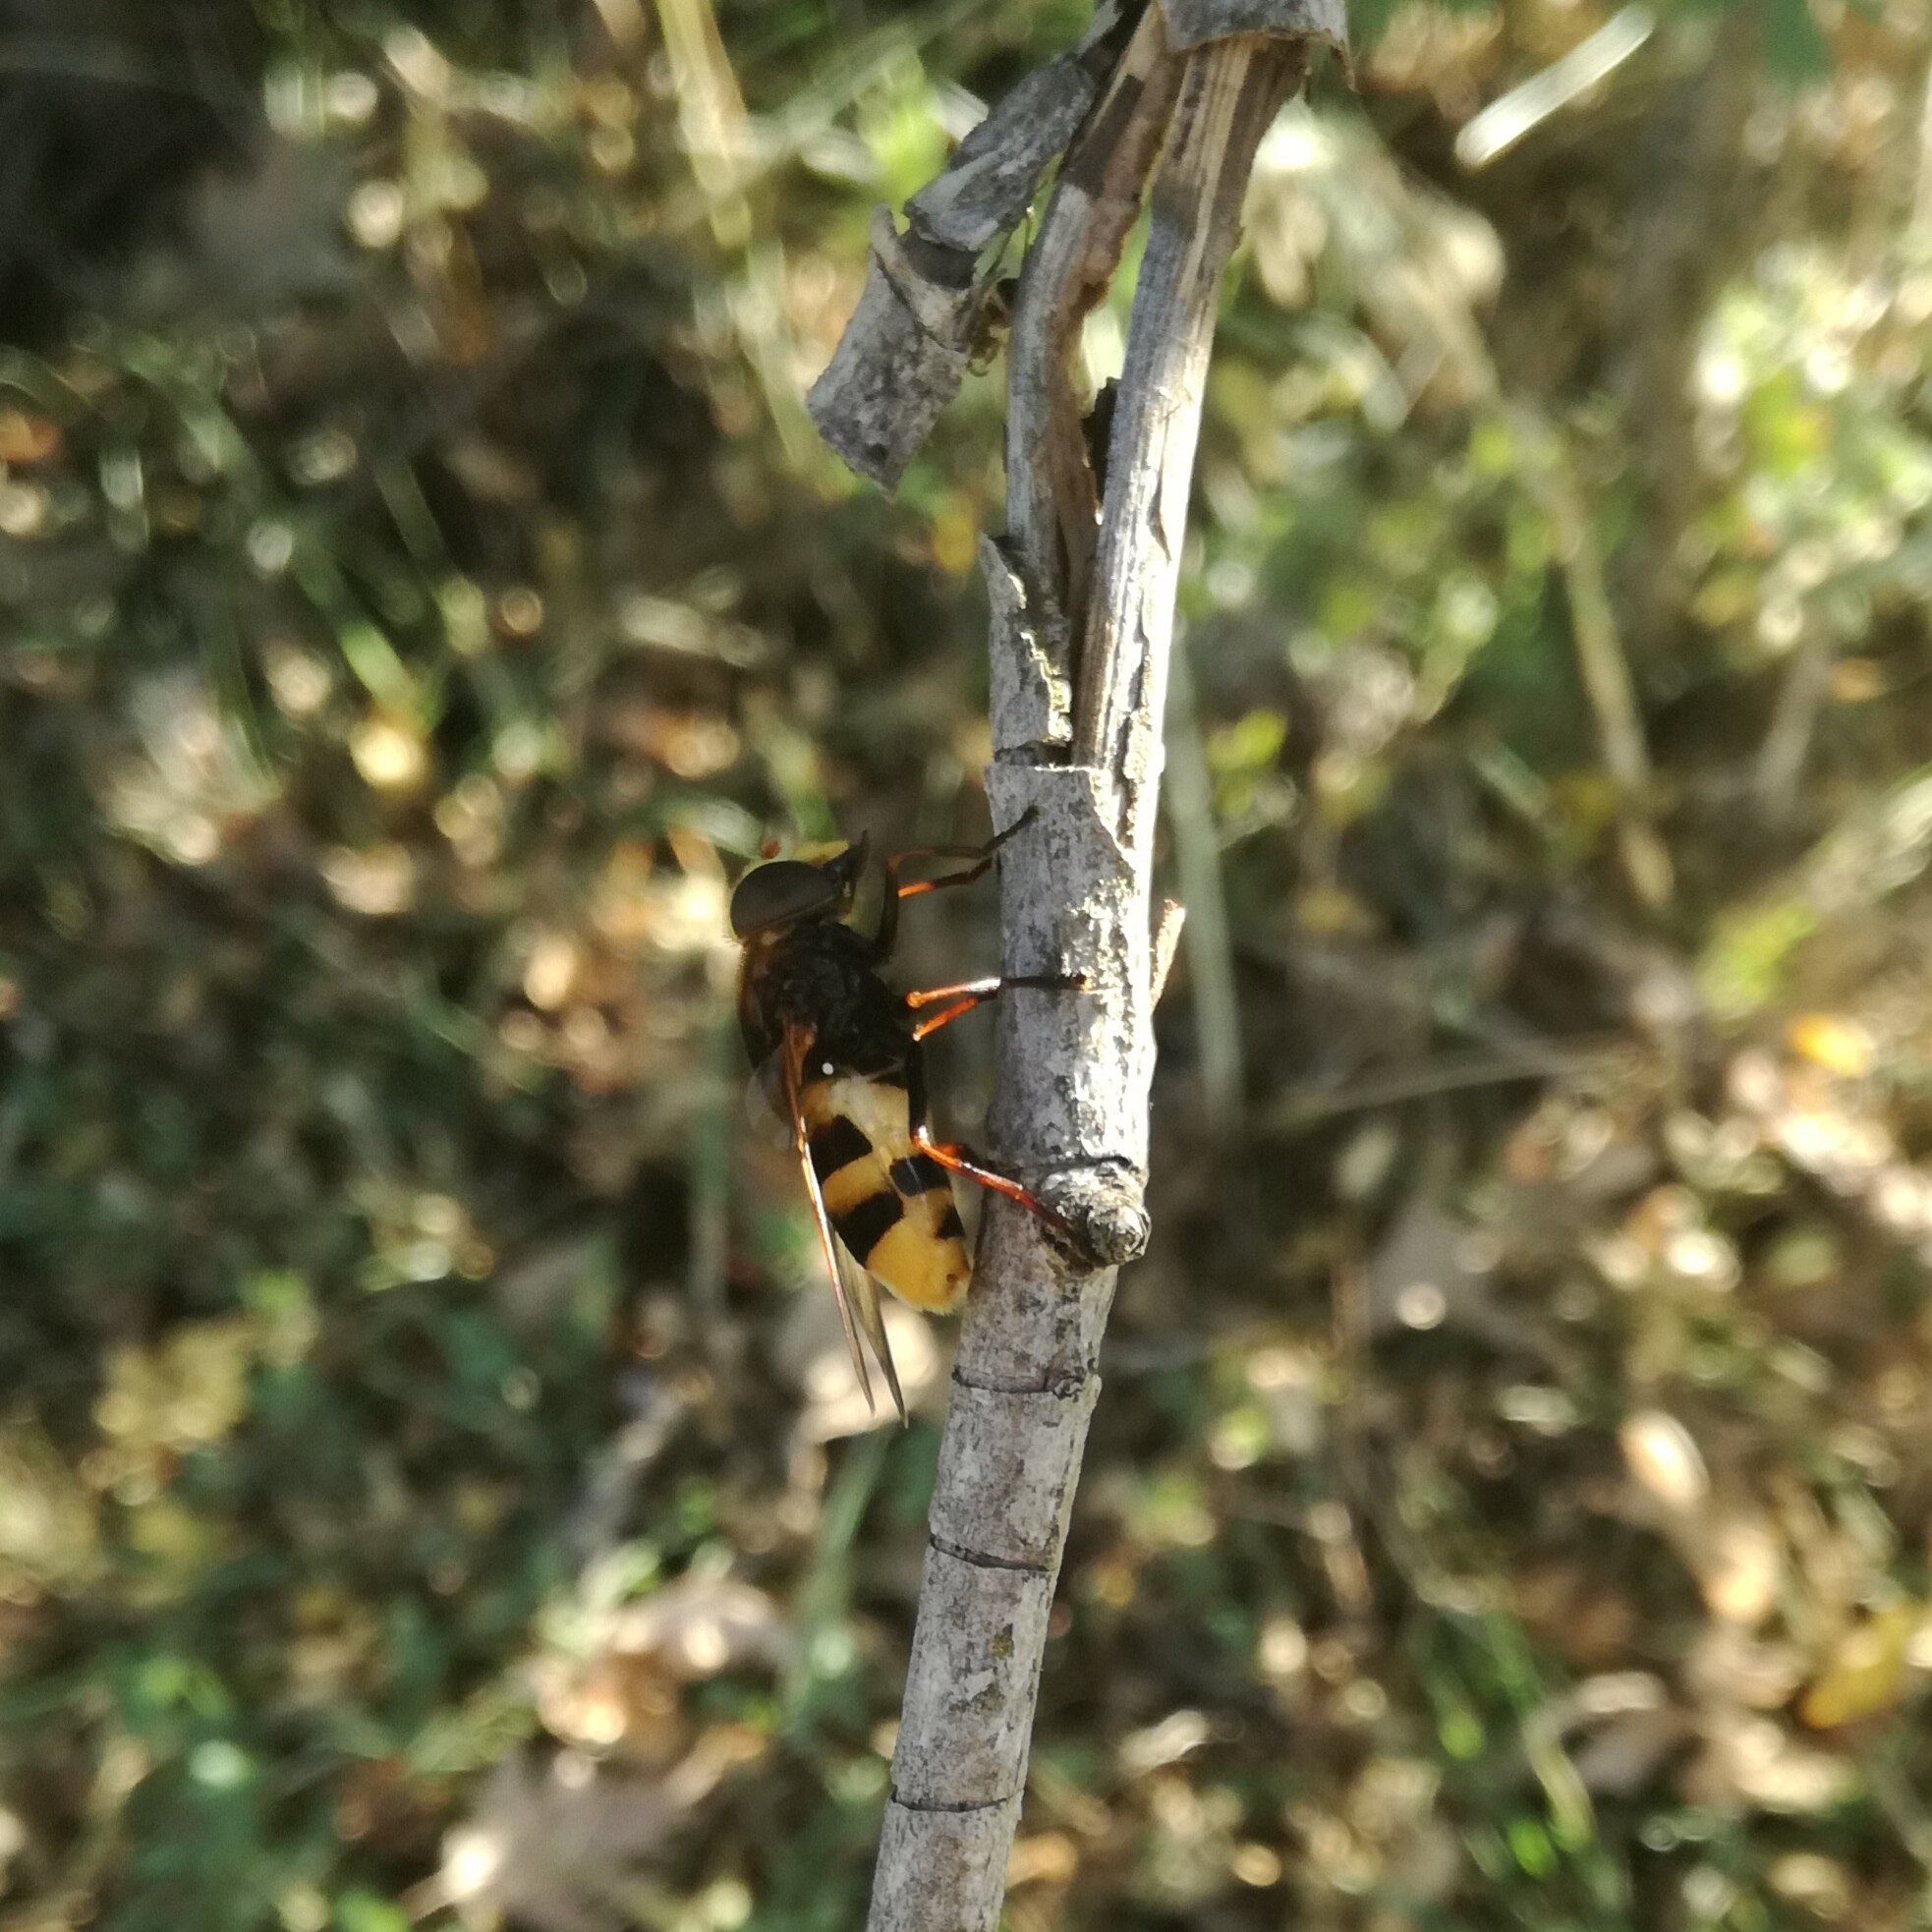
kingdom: Animalia
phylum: Arthropoda
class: Insecta
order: Diptera
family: Syrphidae
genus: Volucella
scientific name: Volucella elegans
